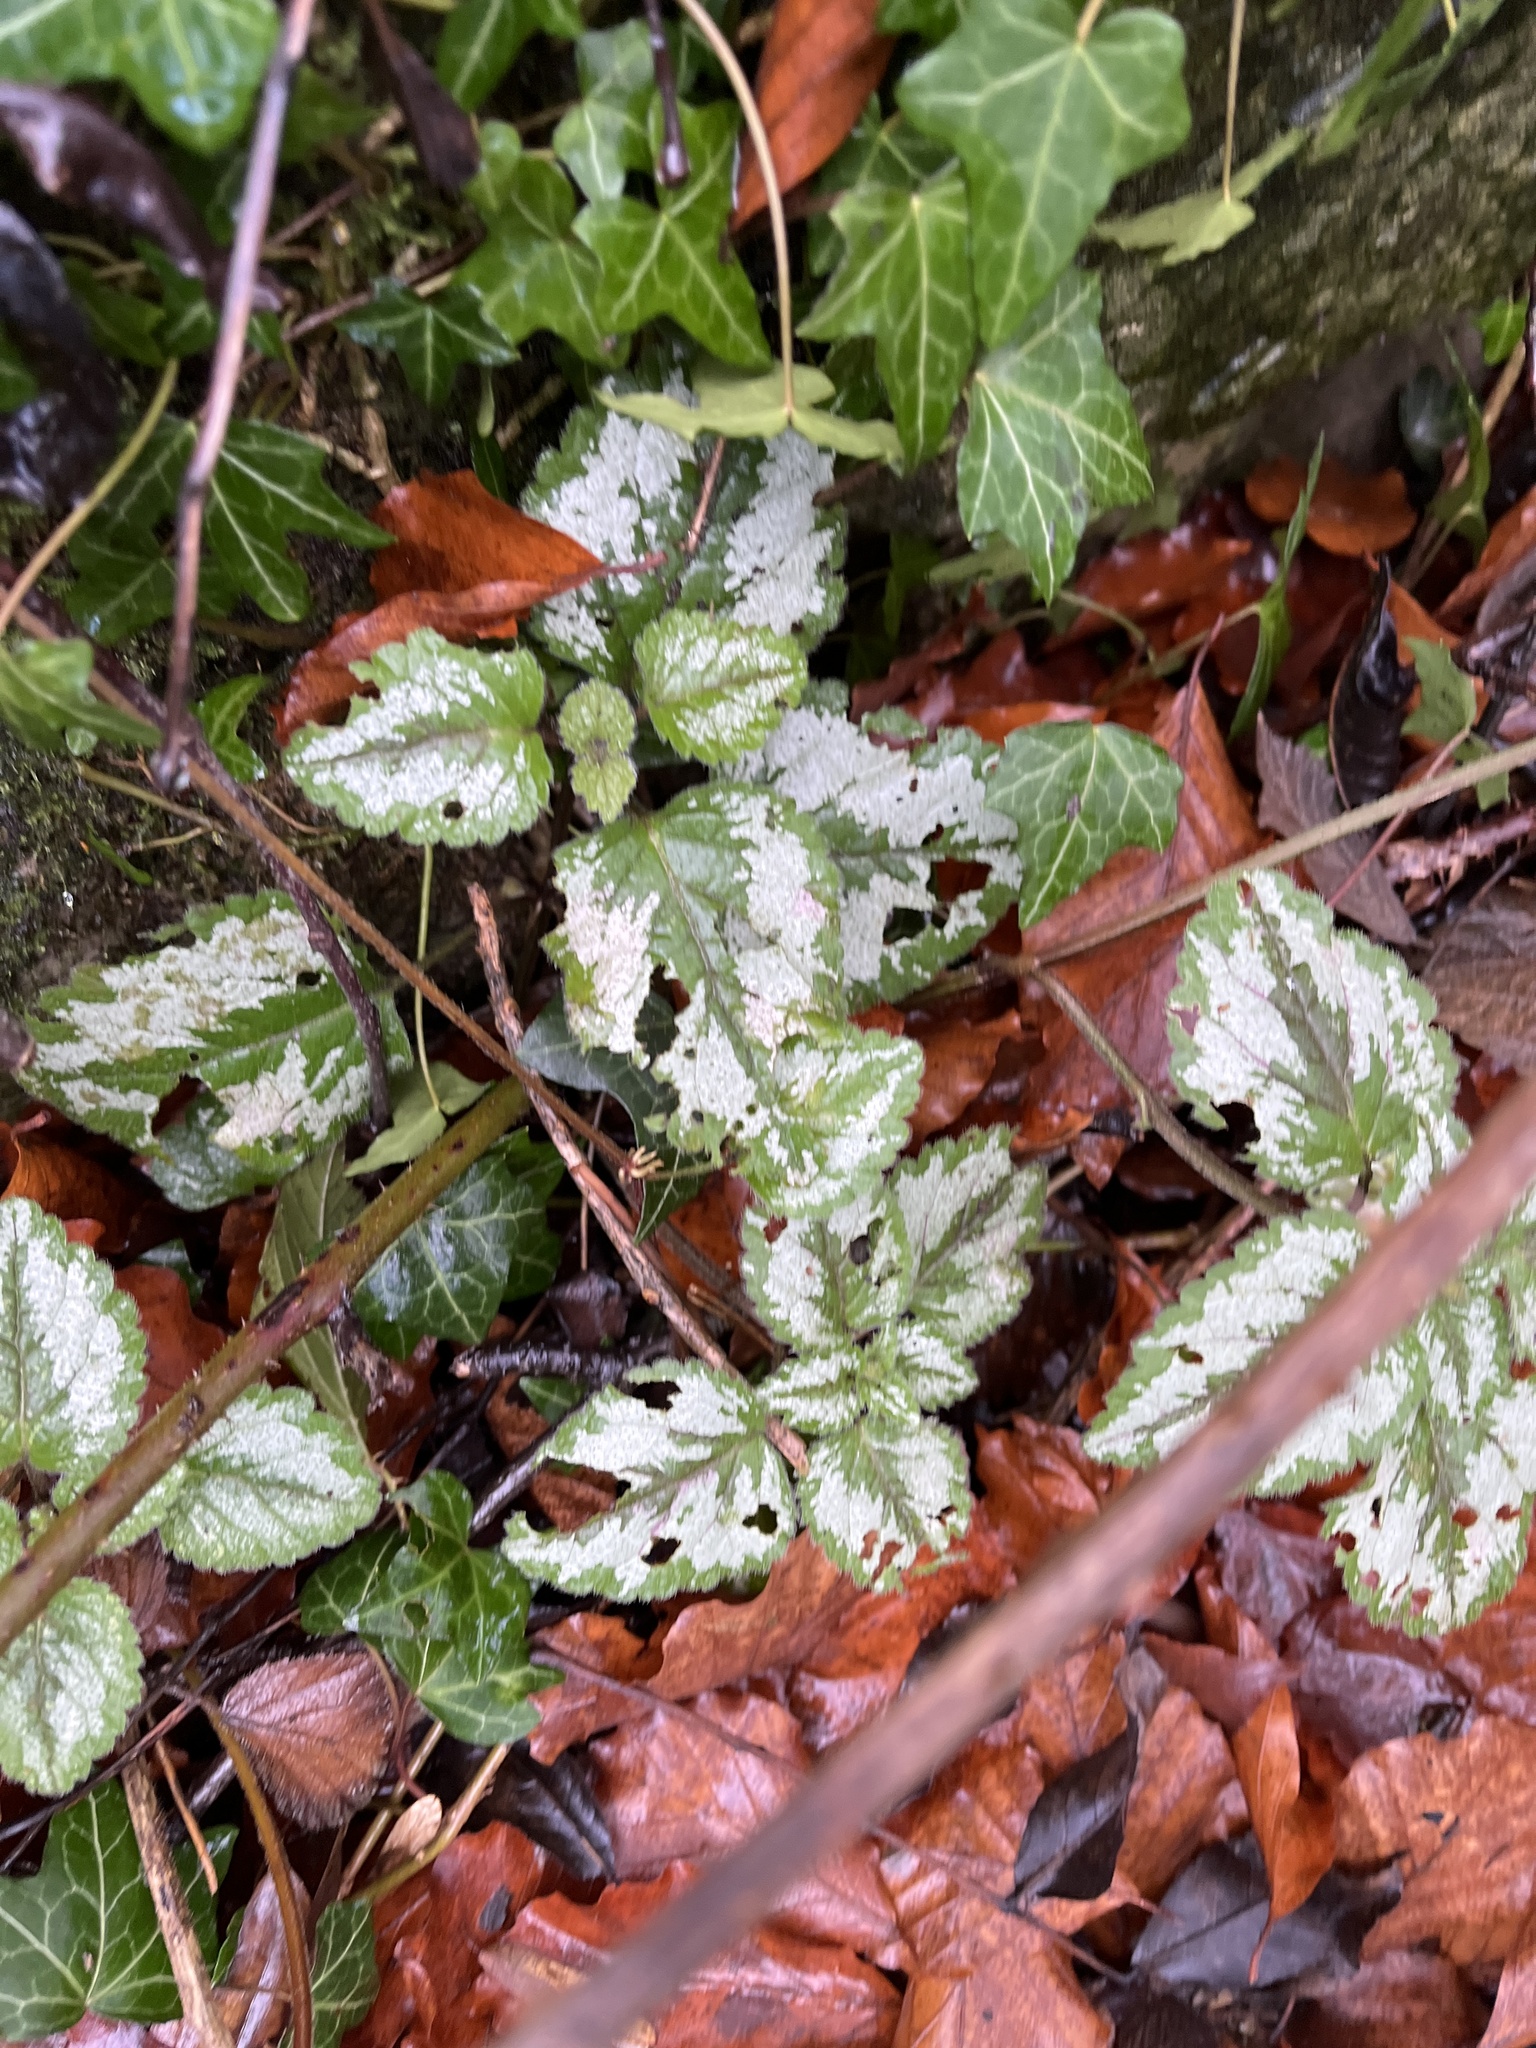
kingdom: Plantae
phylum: Tracheophyta
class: Magnoliopsida
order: Lamiales
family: Lamiaceae
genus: Lamium
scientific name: Lamium galeobdolon
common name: Yellow archangel
